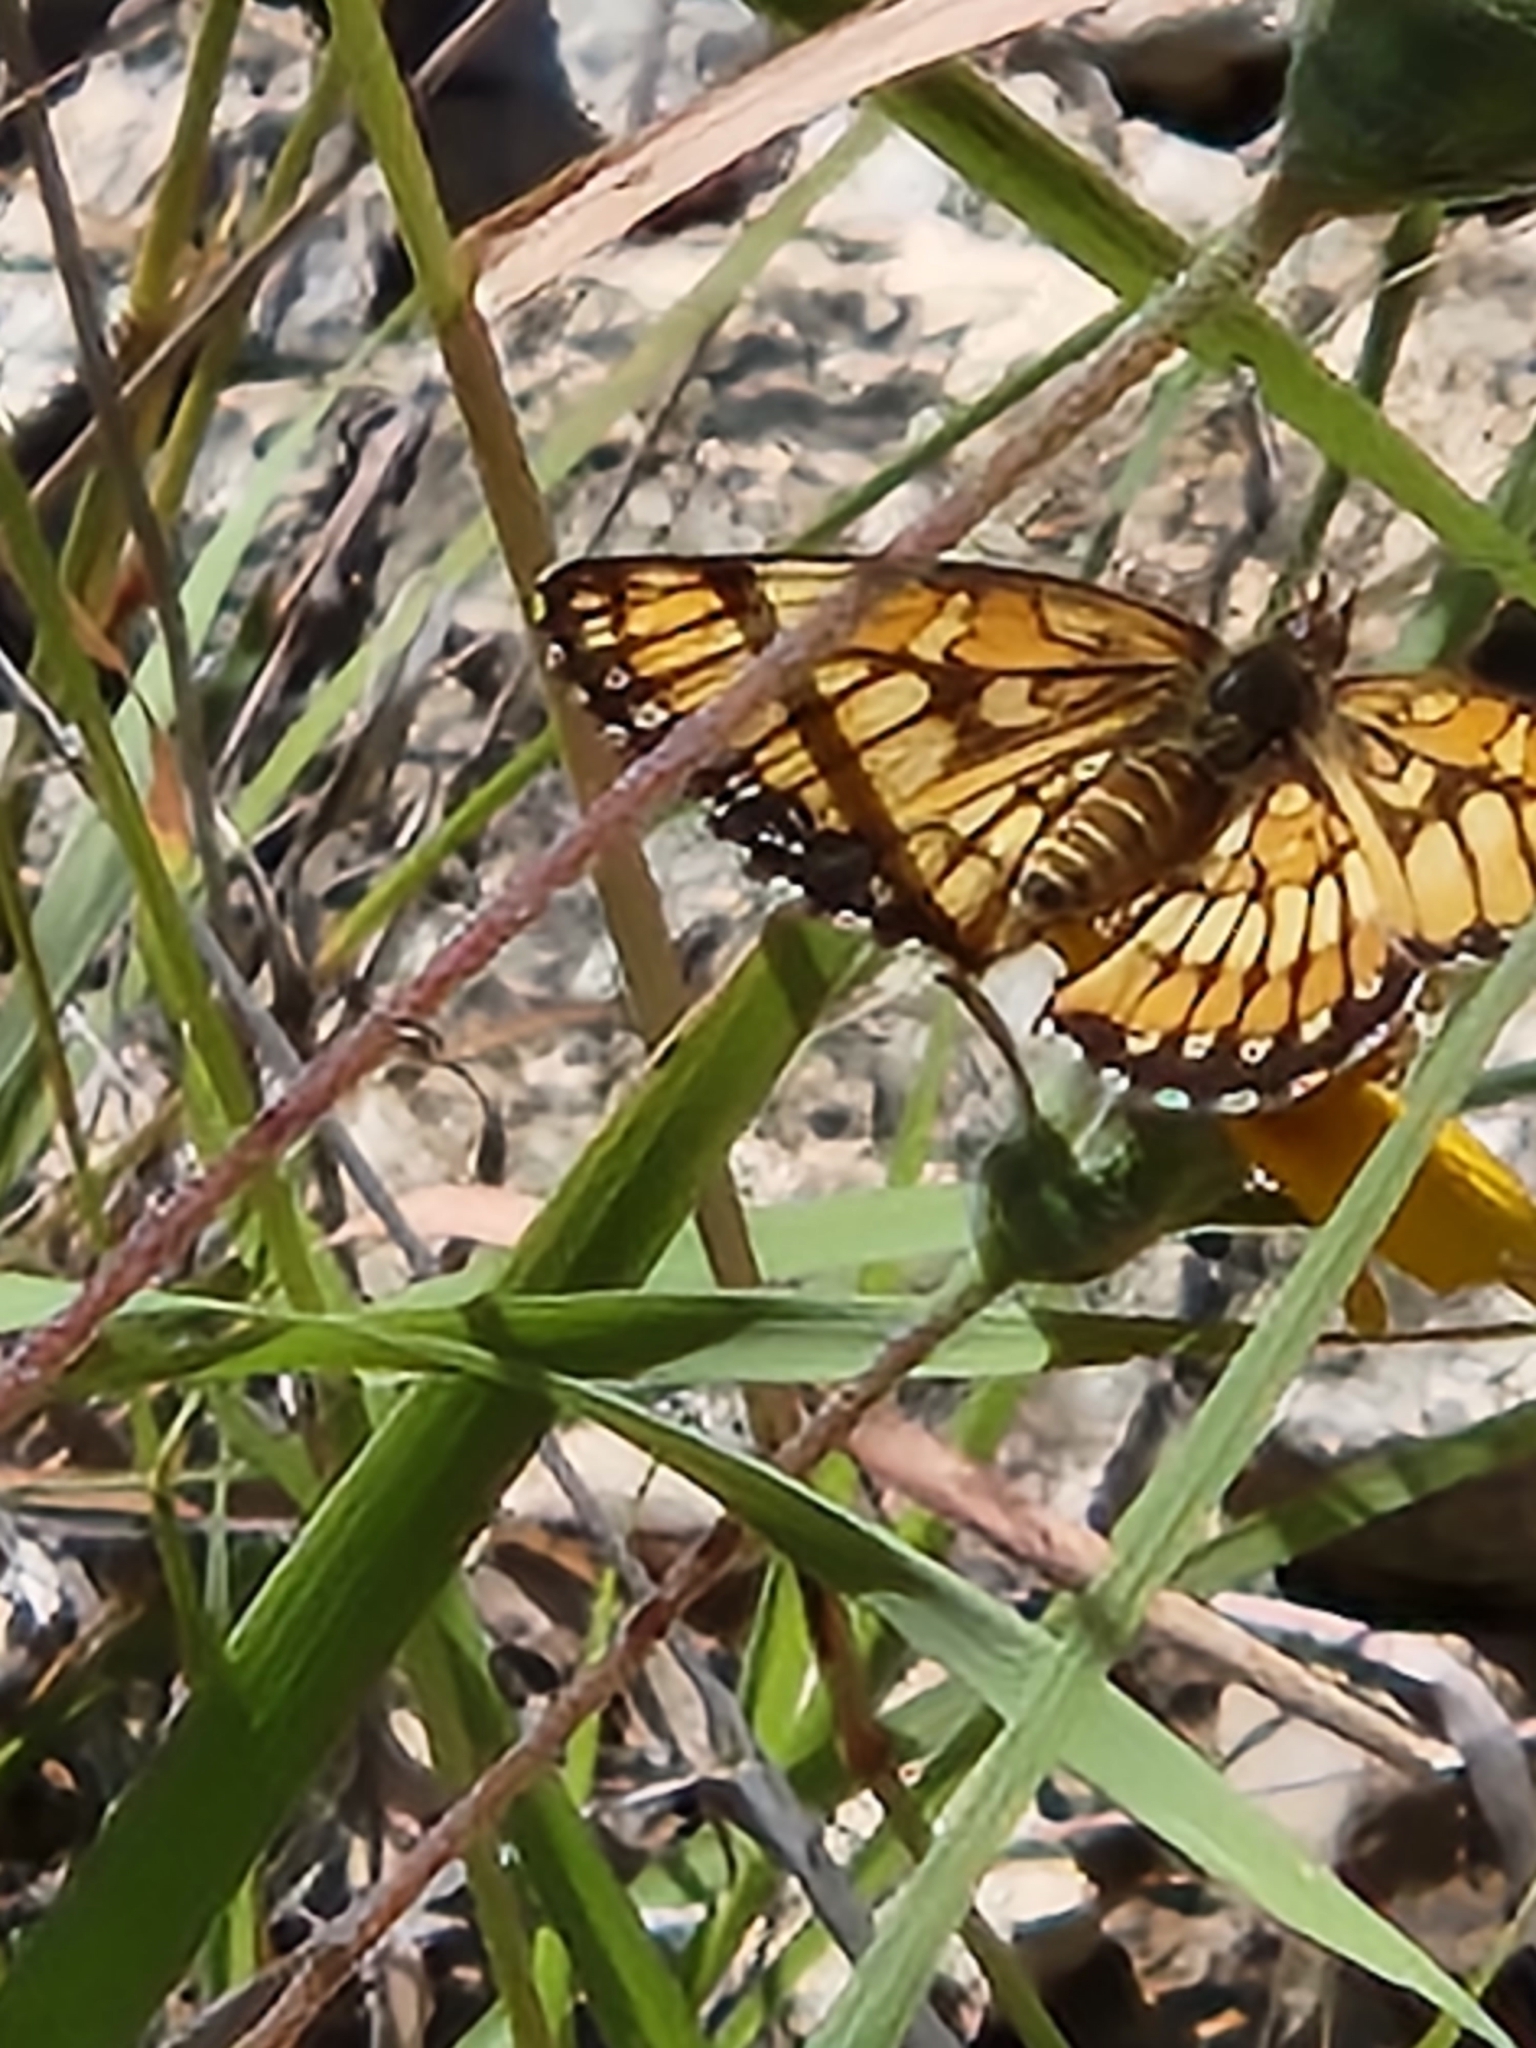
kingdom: Animalia
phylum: Arthropoda
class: Insecta
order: Lepidoptera
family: Nymphalidae
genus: Thessalia
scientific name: Thessalia theona
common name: Nymphalid moth
